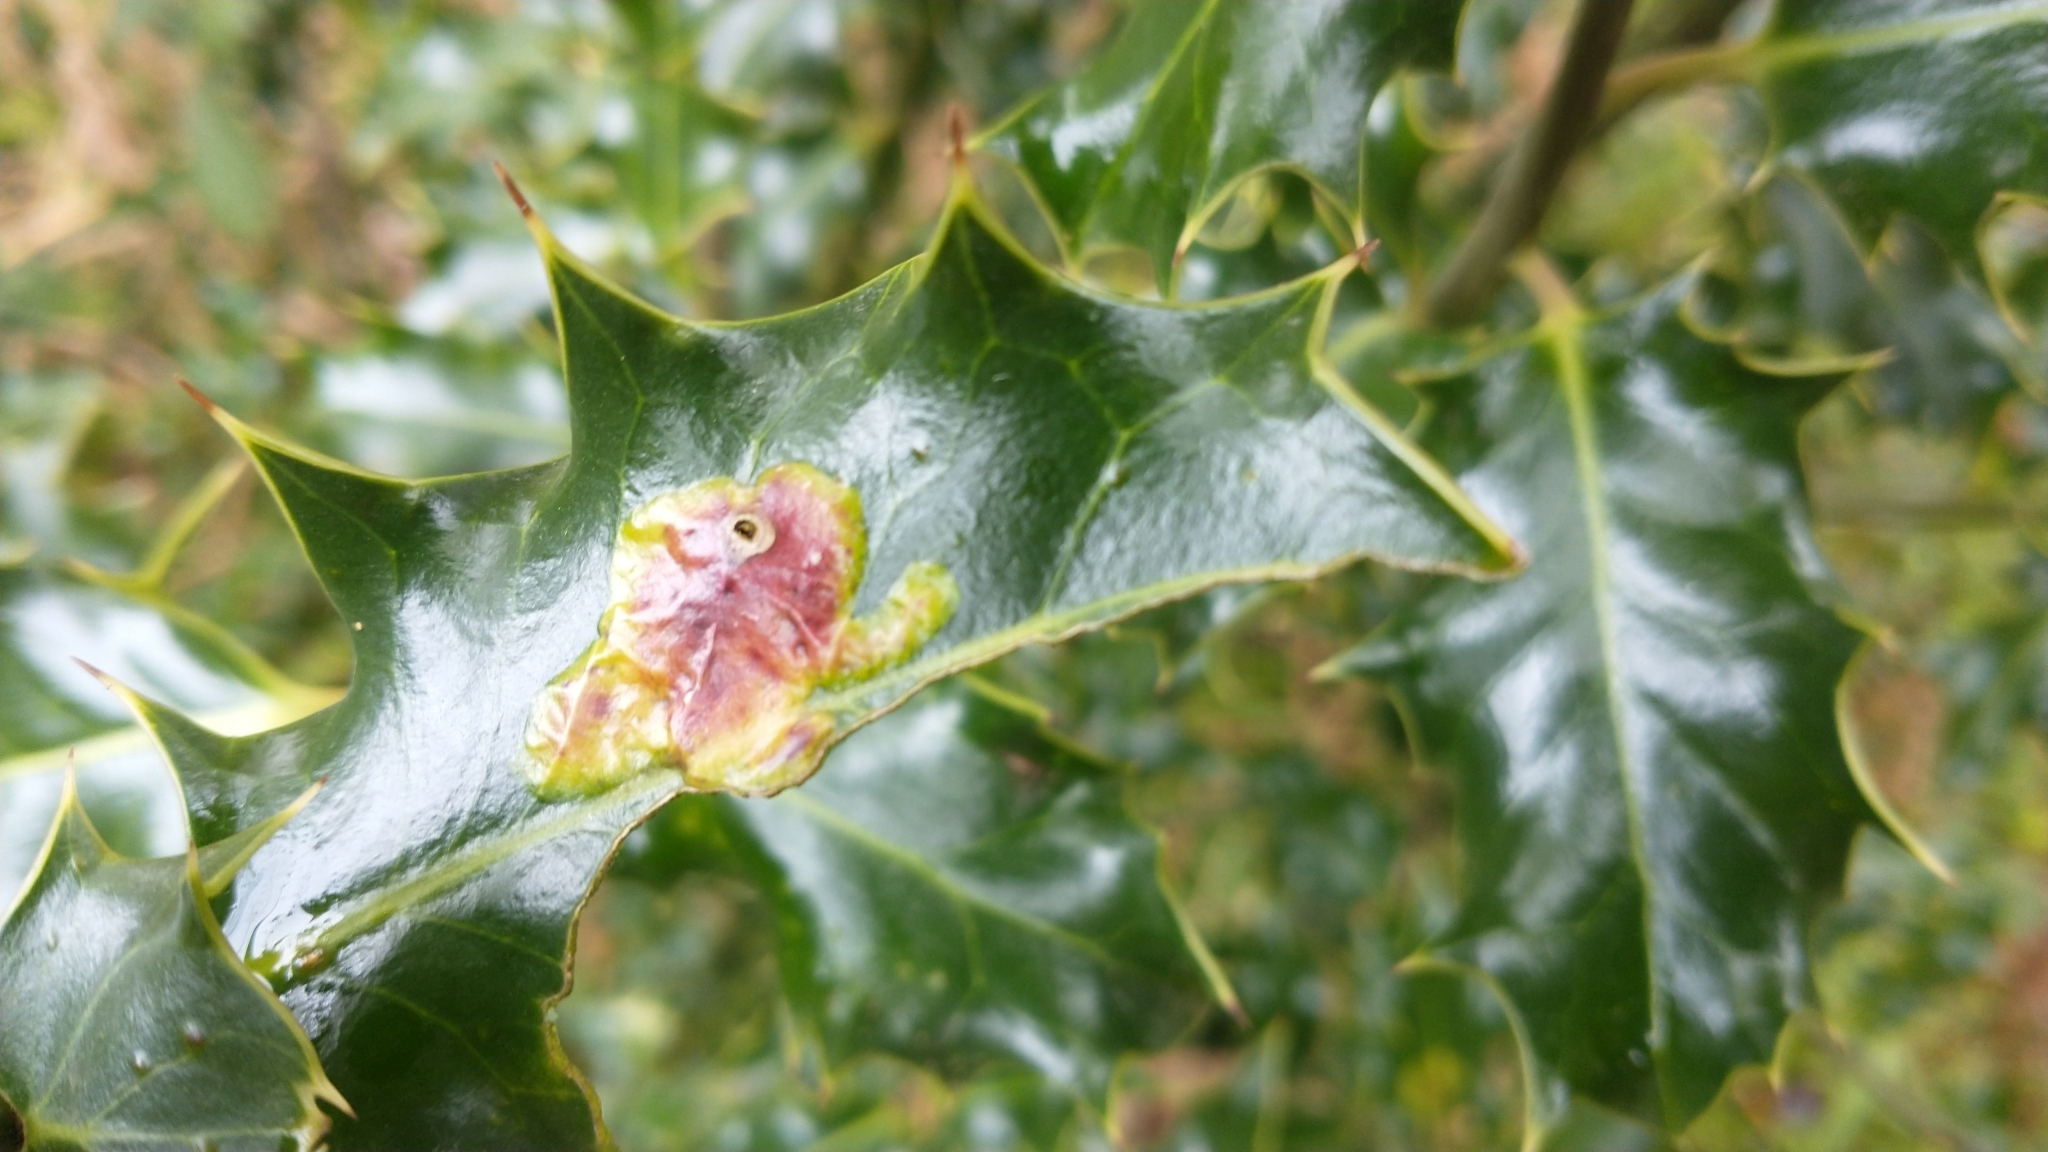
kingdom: Animalia
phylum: Arthropoda
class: Insecta
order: Diptera
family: Agromyzidae
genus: Phytomyza
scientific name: Phytomyza ilicis
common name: Holly leafminer
